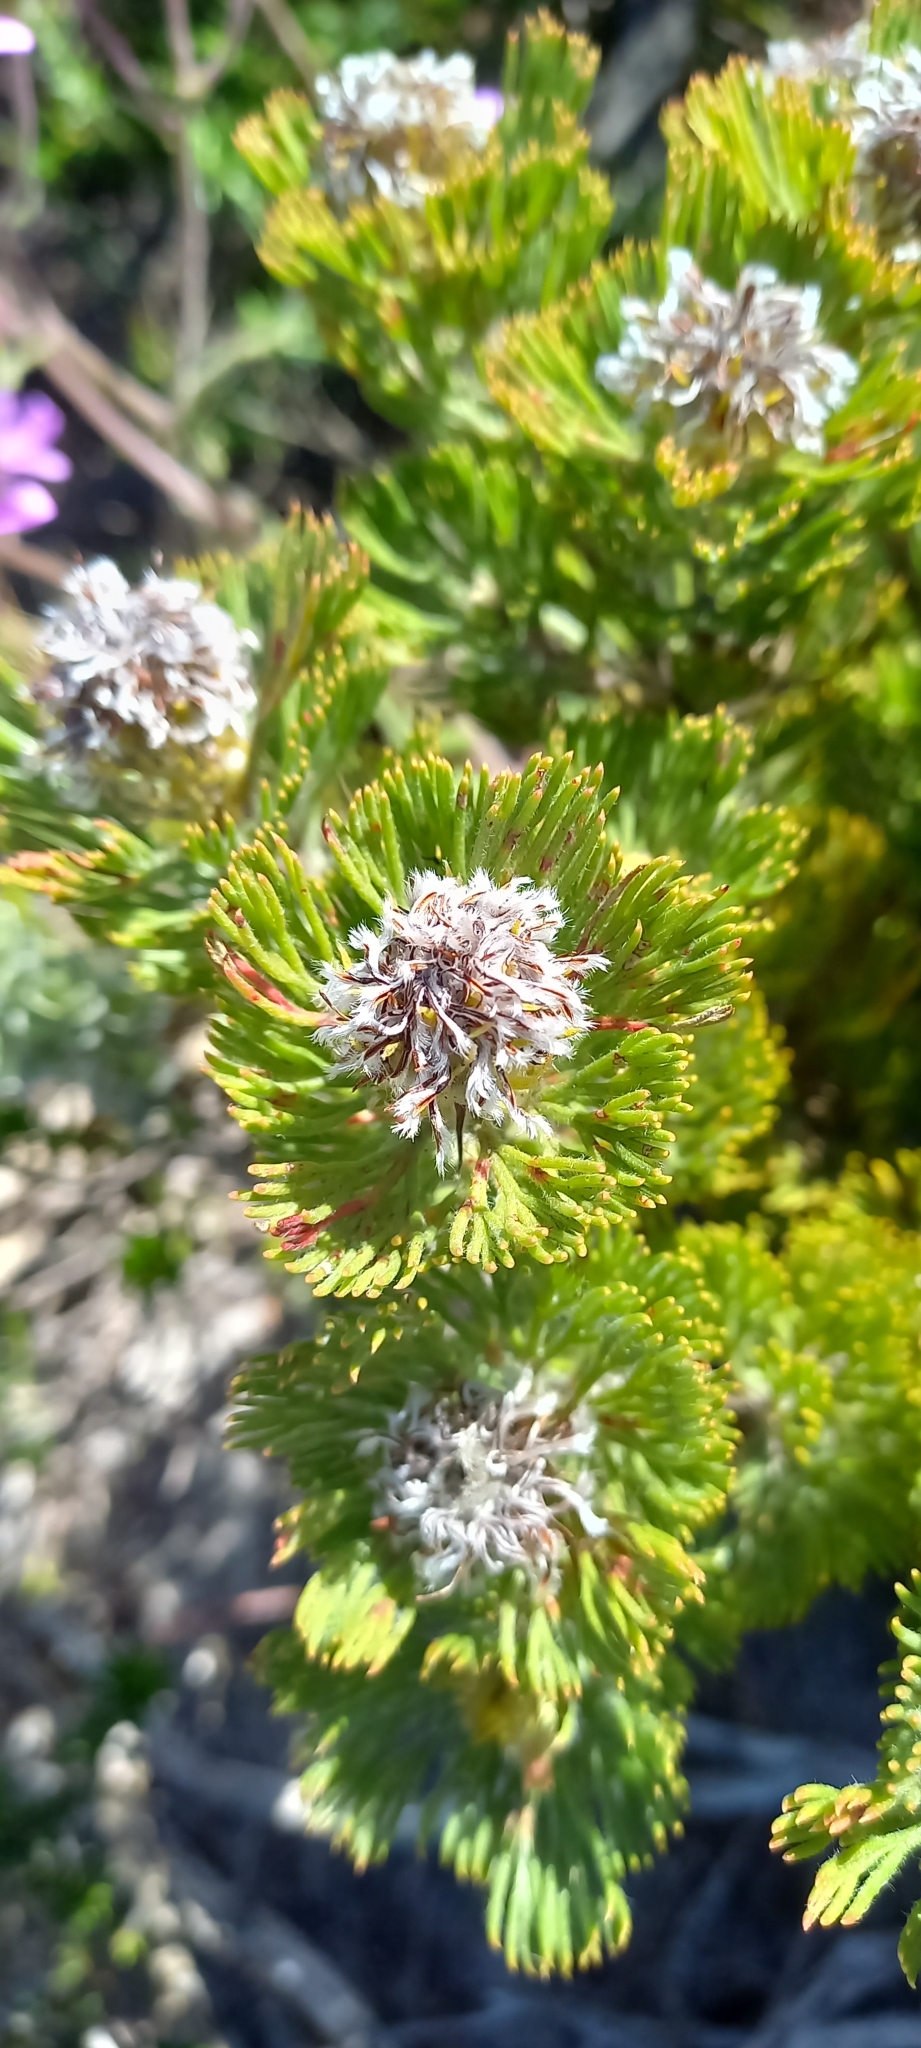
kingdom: Plantae
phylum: Tracheophyta
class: Magnoliopsida
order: Proteales
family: Proteaceae
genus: Serruria
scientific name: Serruria villosa
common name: Golden spiderhead
